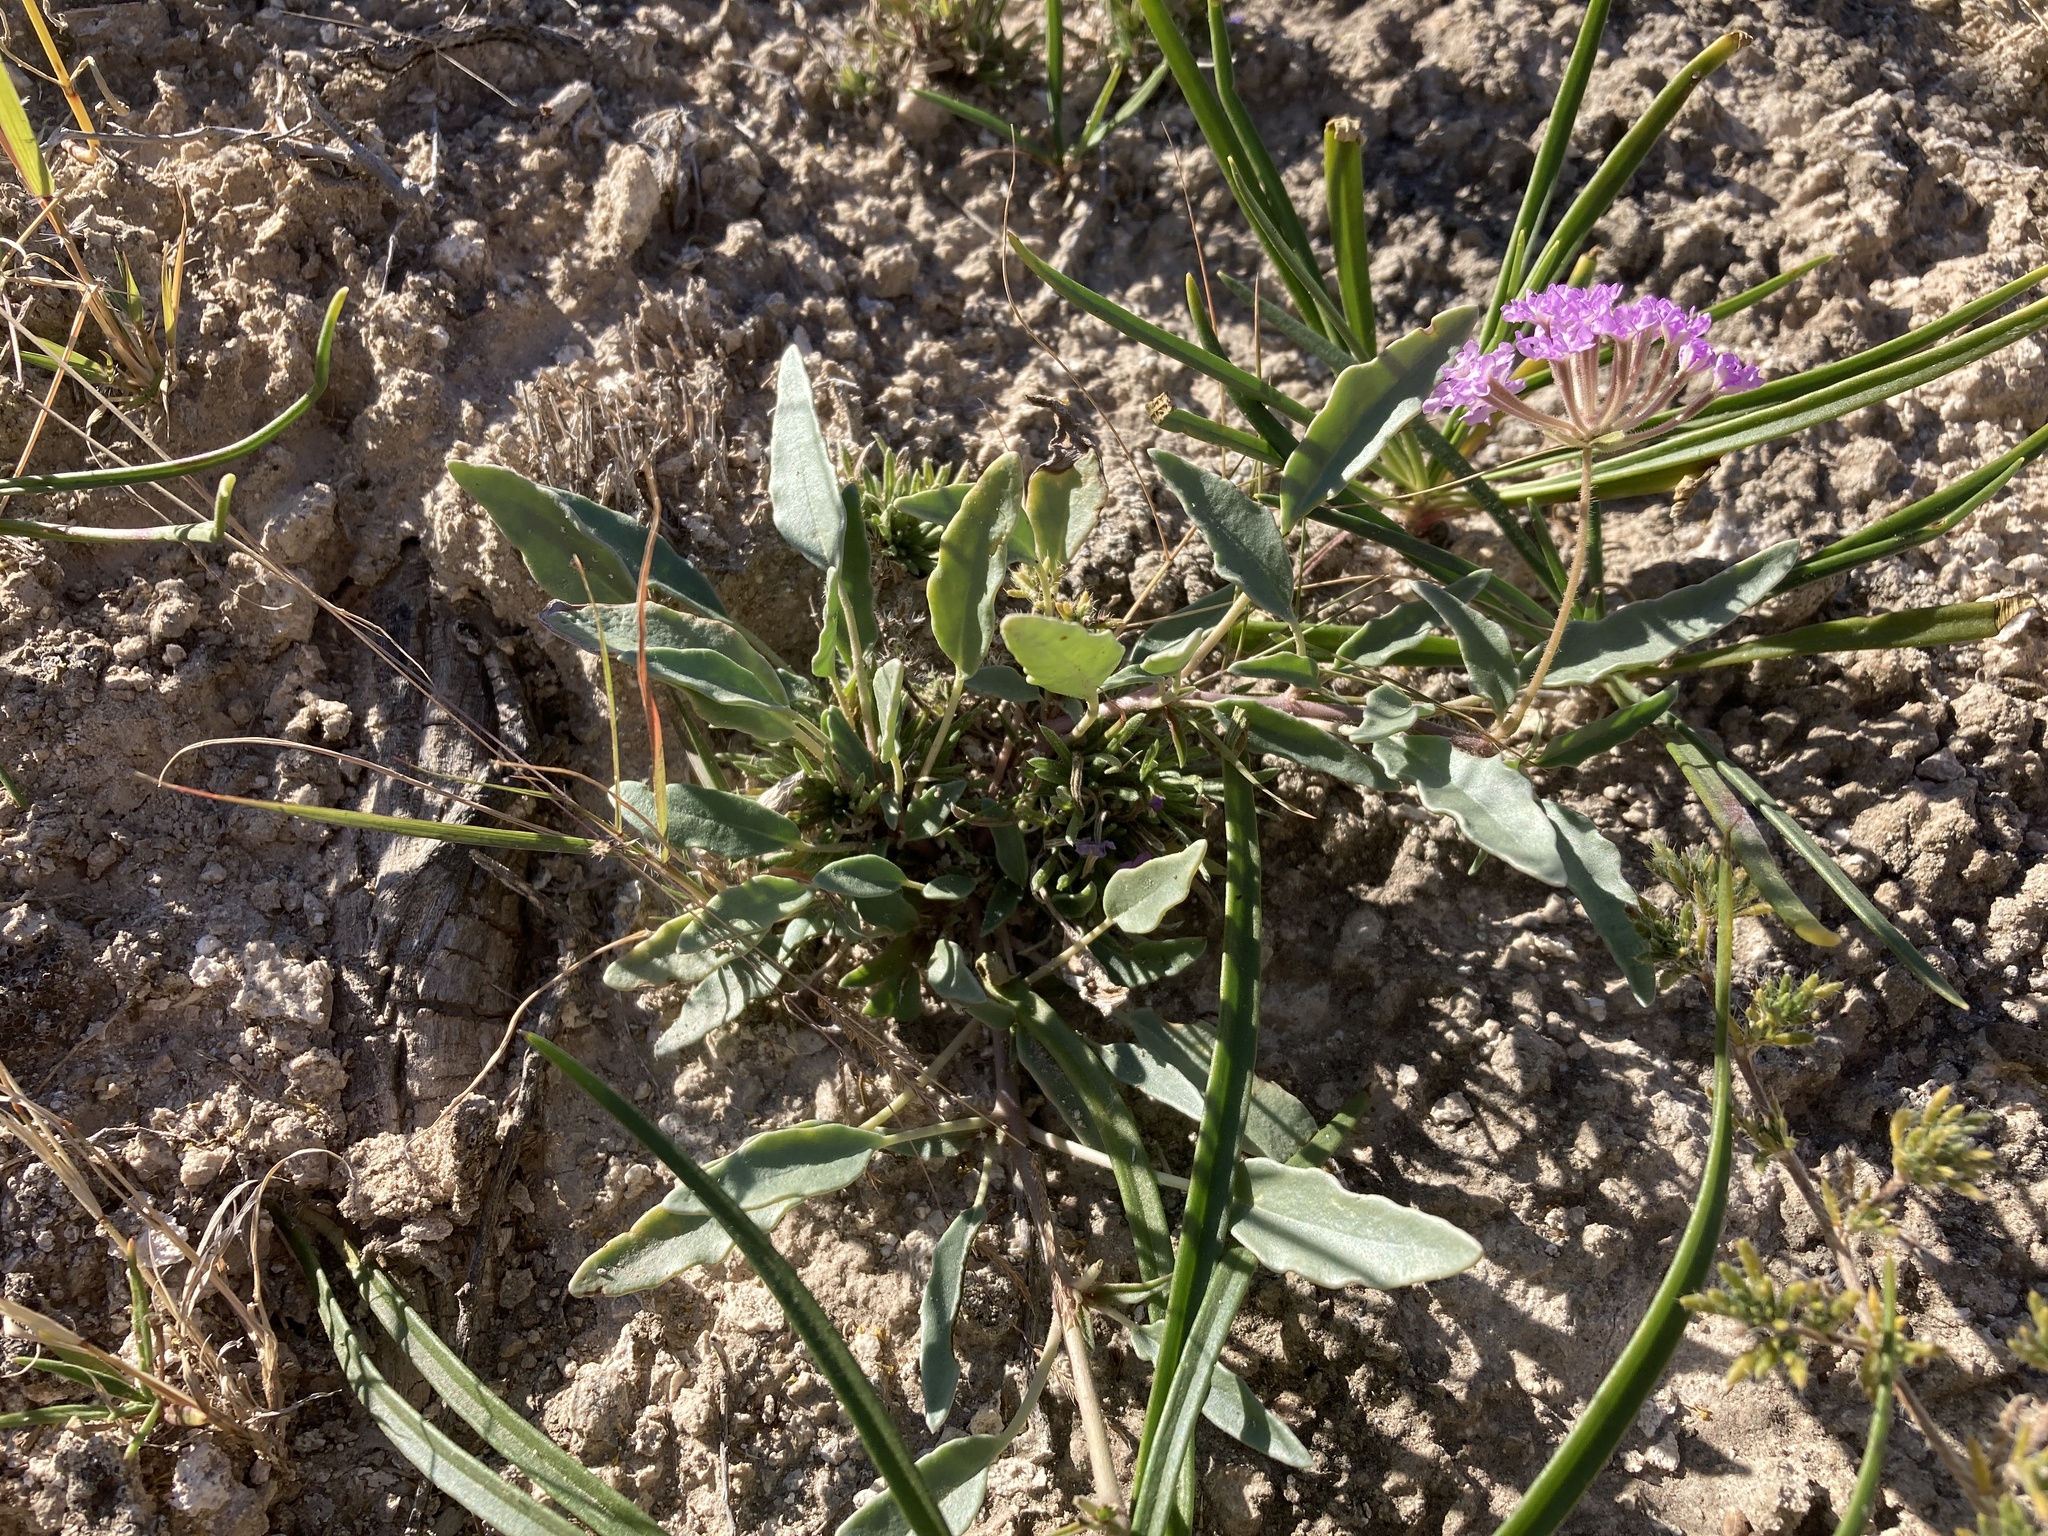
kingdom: Plantae
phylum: Tracheophyta
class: Magnoliopsida
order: Caryophyllales
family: Nyctaginaceae
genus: Abronia
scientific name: Abronia carletonii
